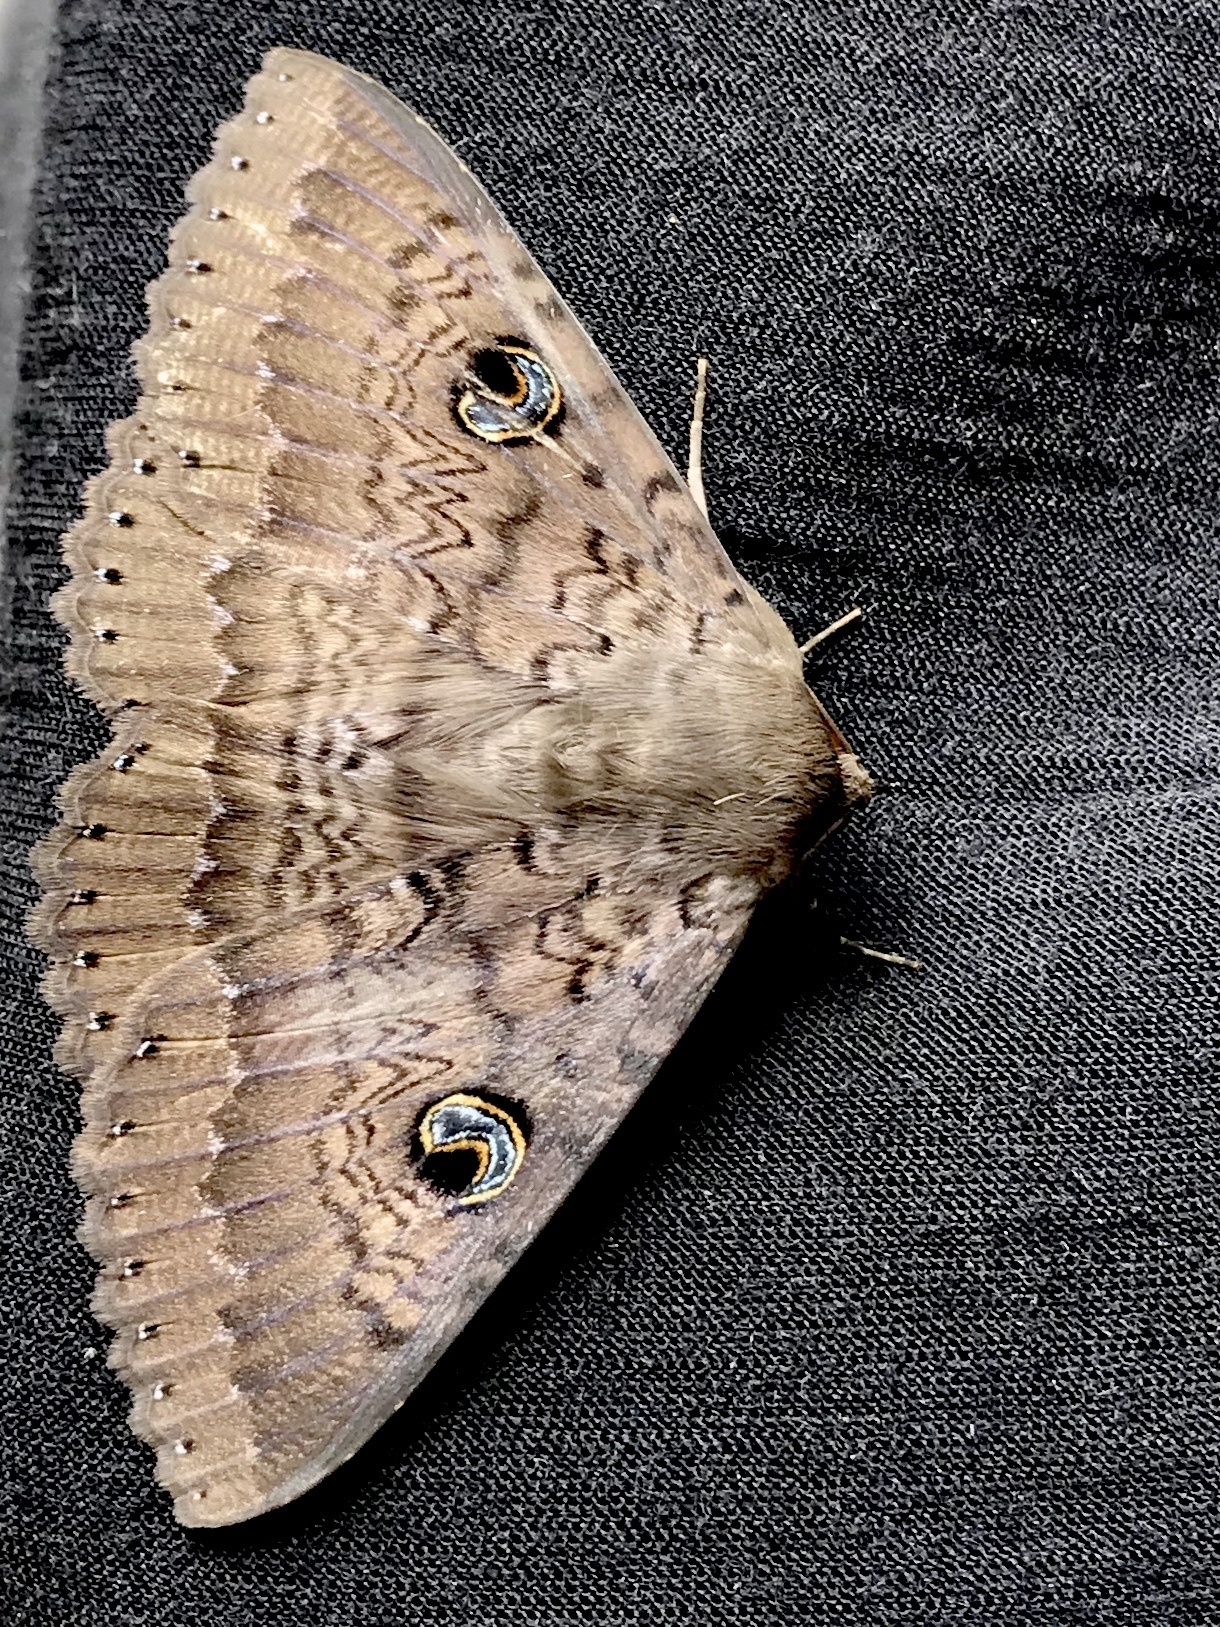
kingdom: Animalia
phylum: Arthropoda
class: Insecta
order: Lepidoptera
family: Erebidae
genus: Dasypodia
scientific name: Dasypodia cymatodes
